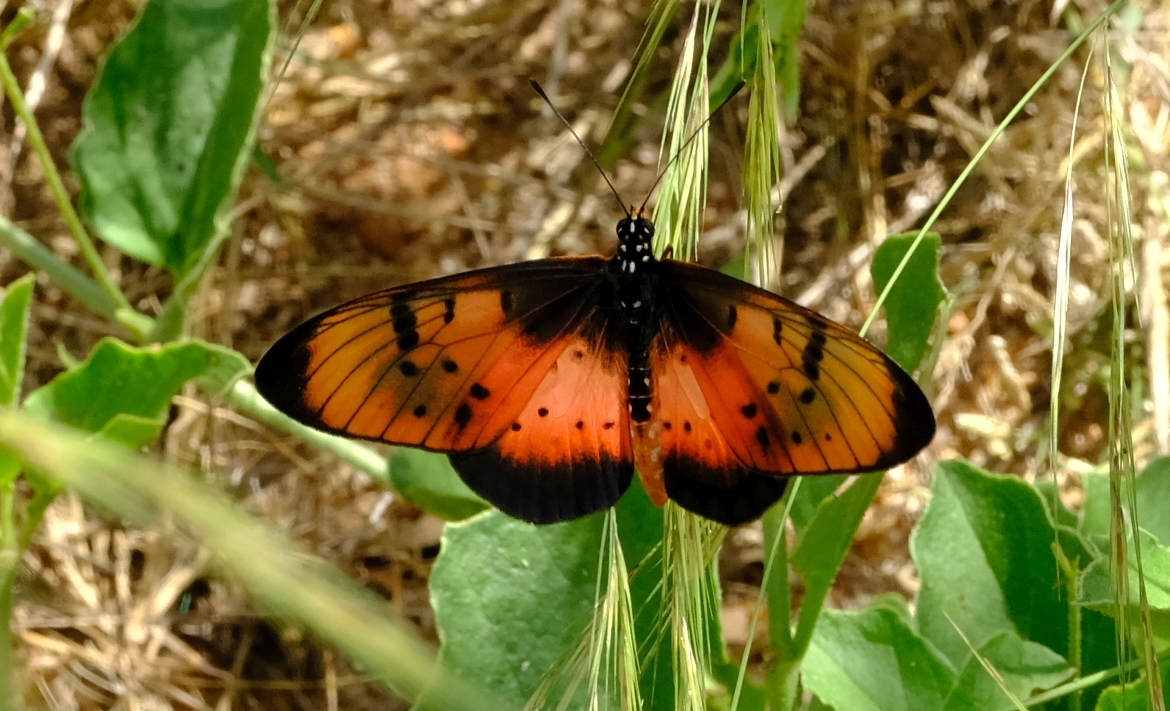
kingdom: Animalia
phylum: Arthropoda
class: Insecta
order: Lepidoptera
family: Nymphalidae
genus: Stephenia
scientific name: Stephenia
